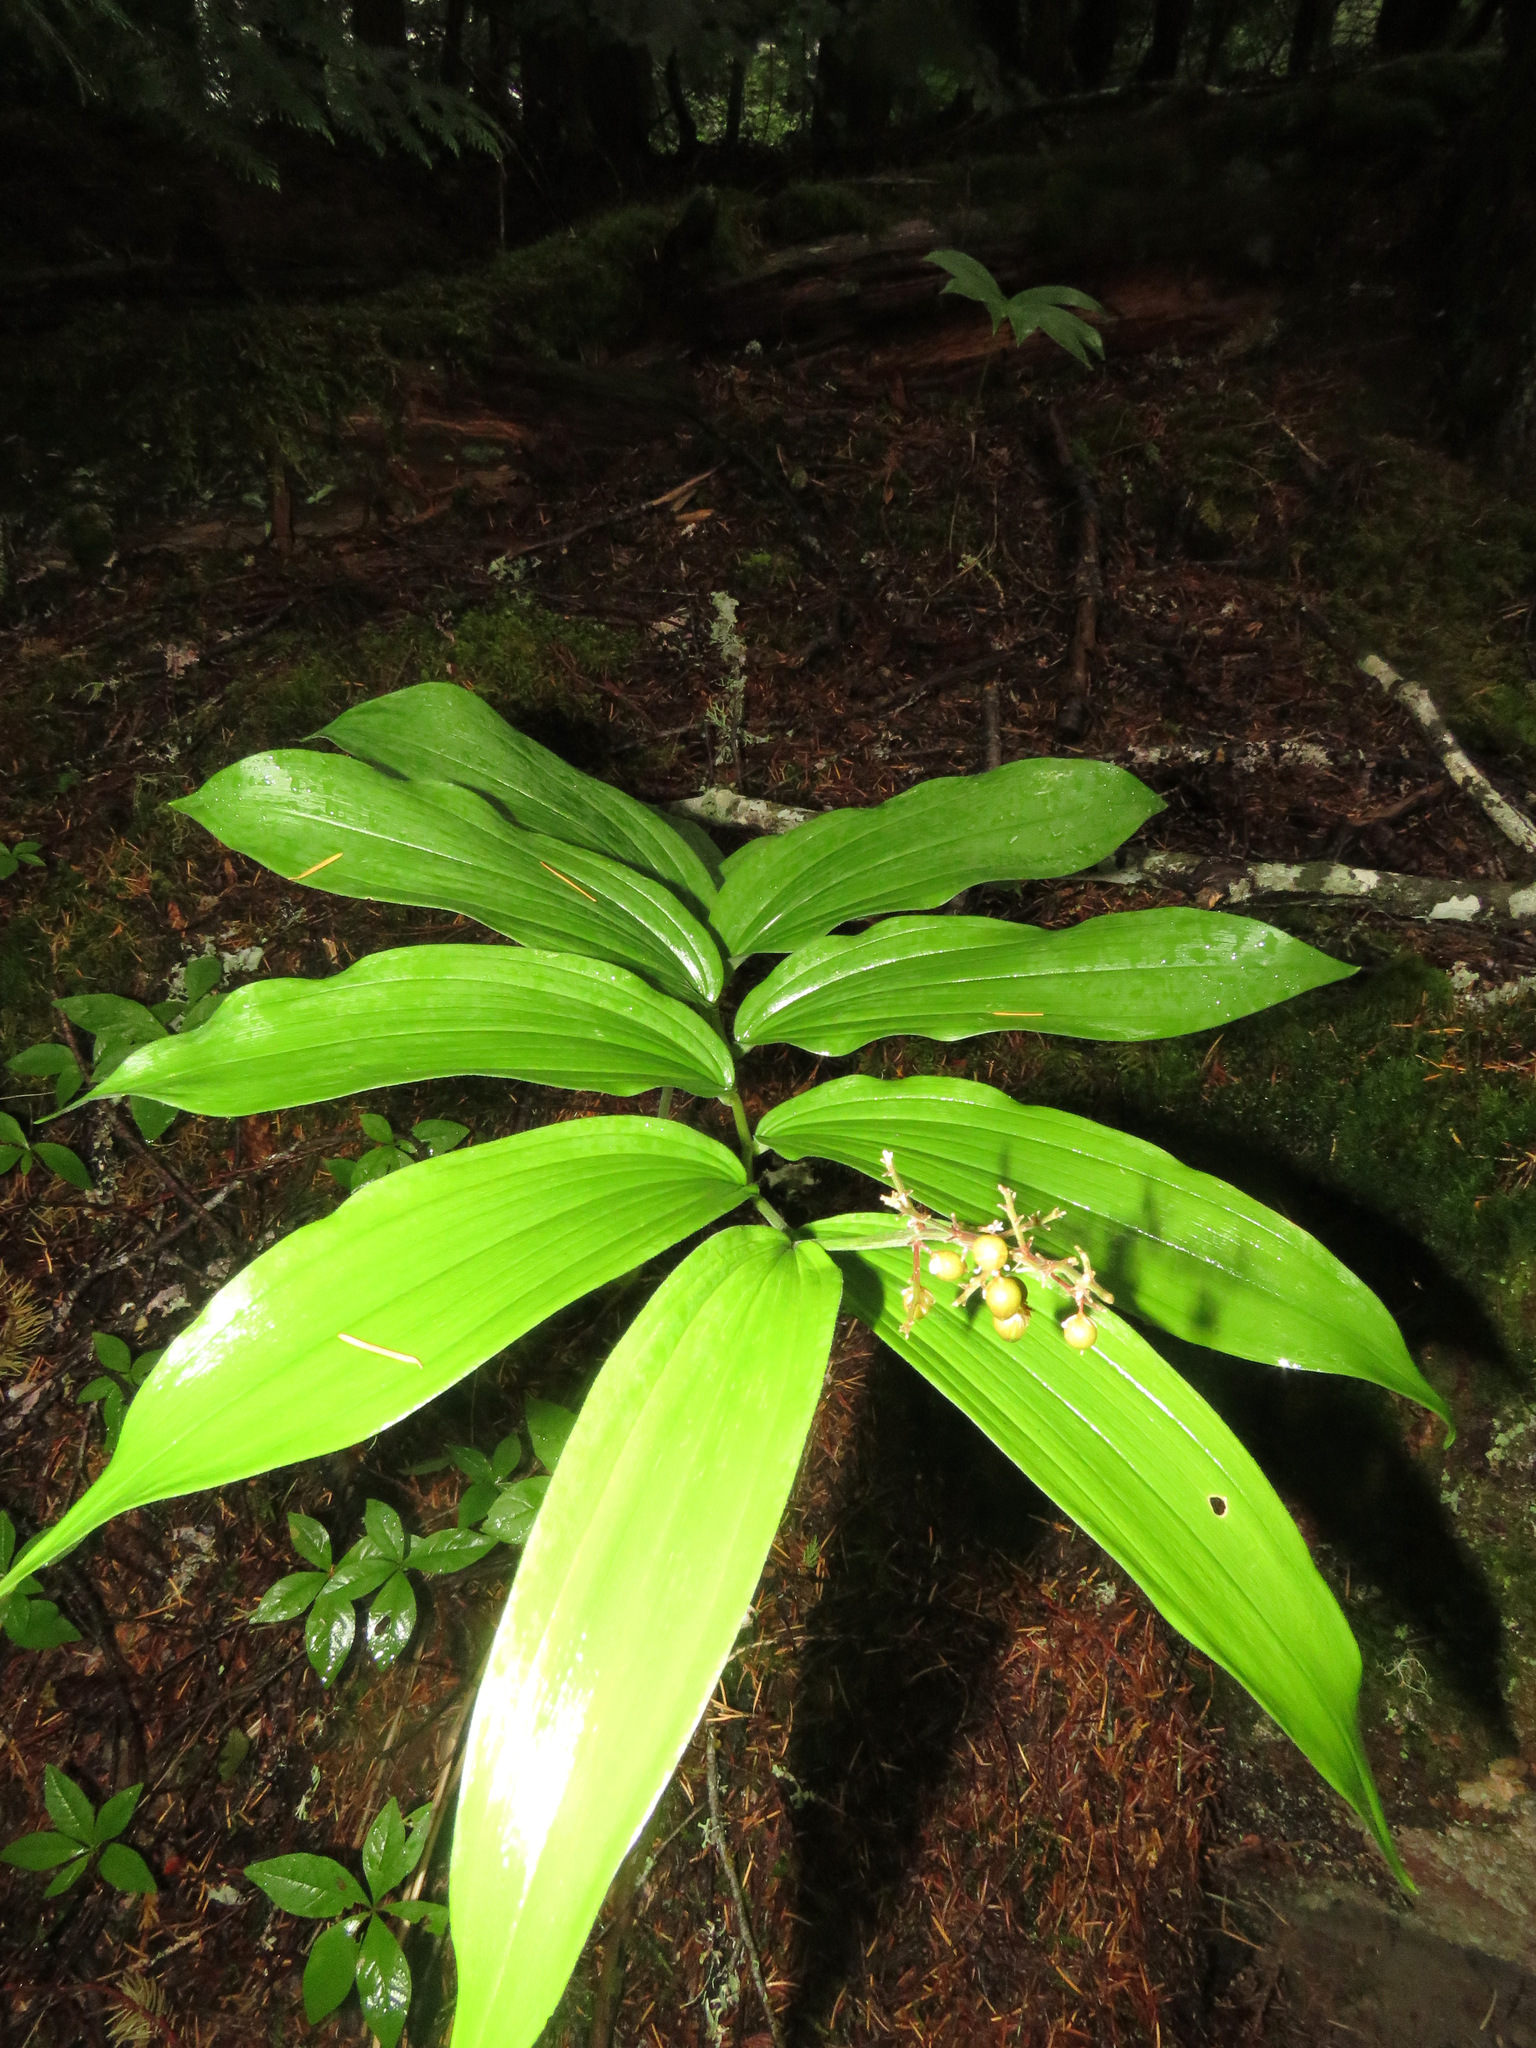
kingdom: Plantae
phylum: Tracheophyta
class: Liliopsida
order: Asparagales
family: Asparagaceae
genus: Maianthemum
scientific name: Maianthemum racemosum
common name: False spikenard
